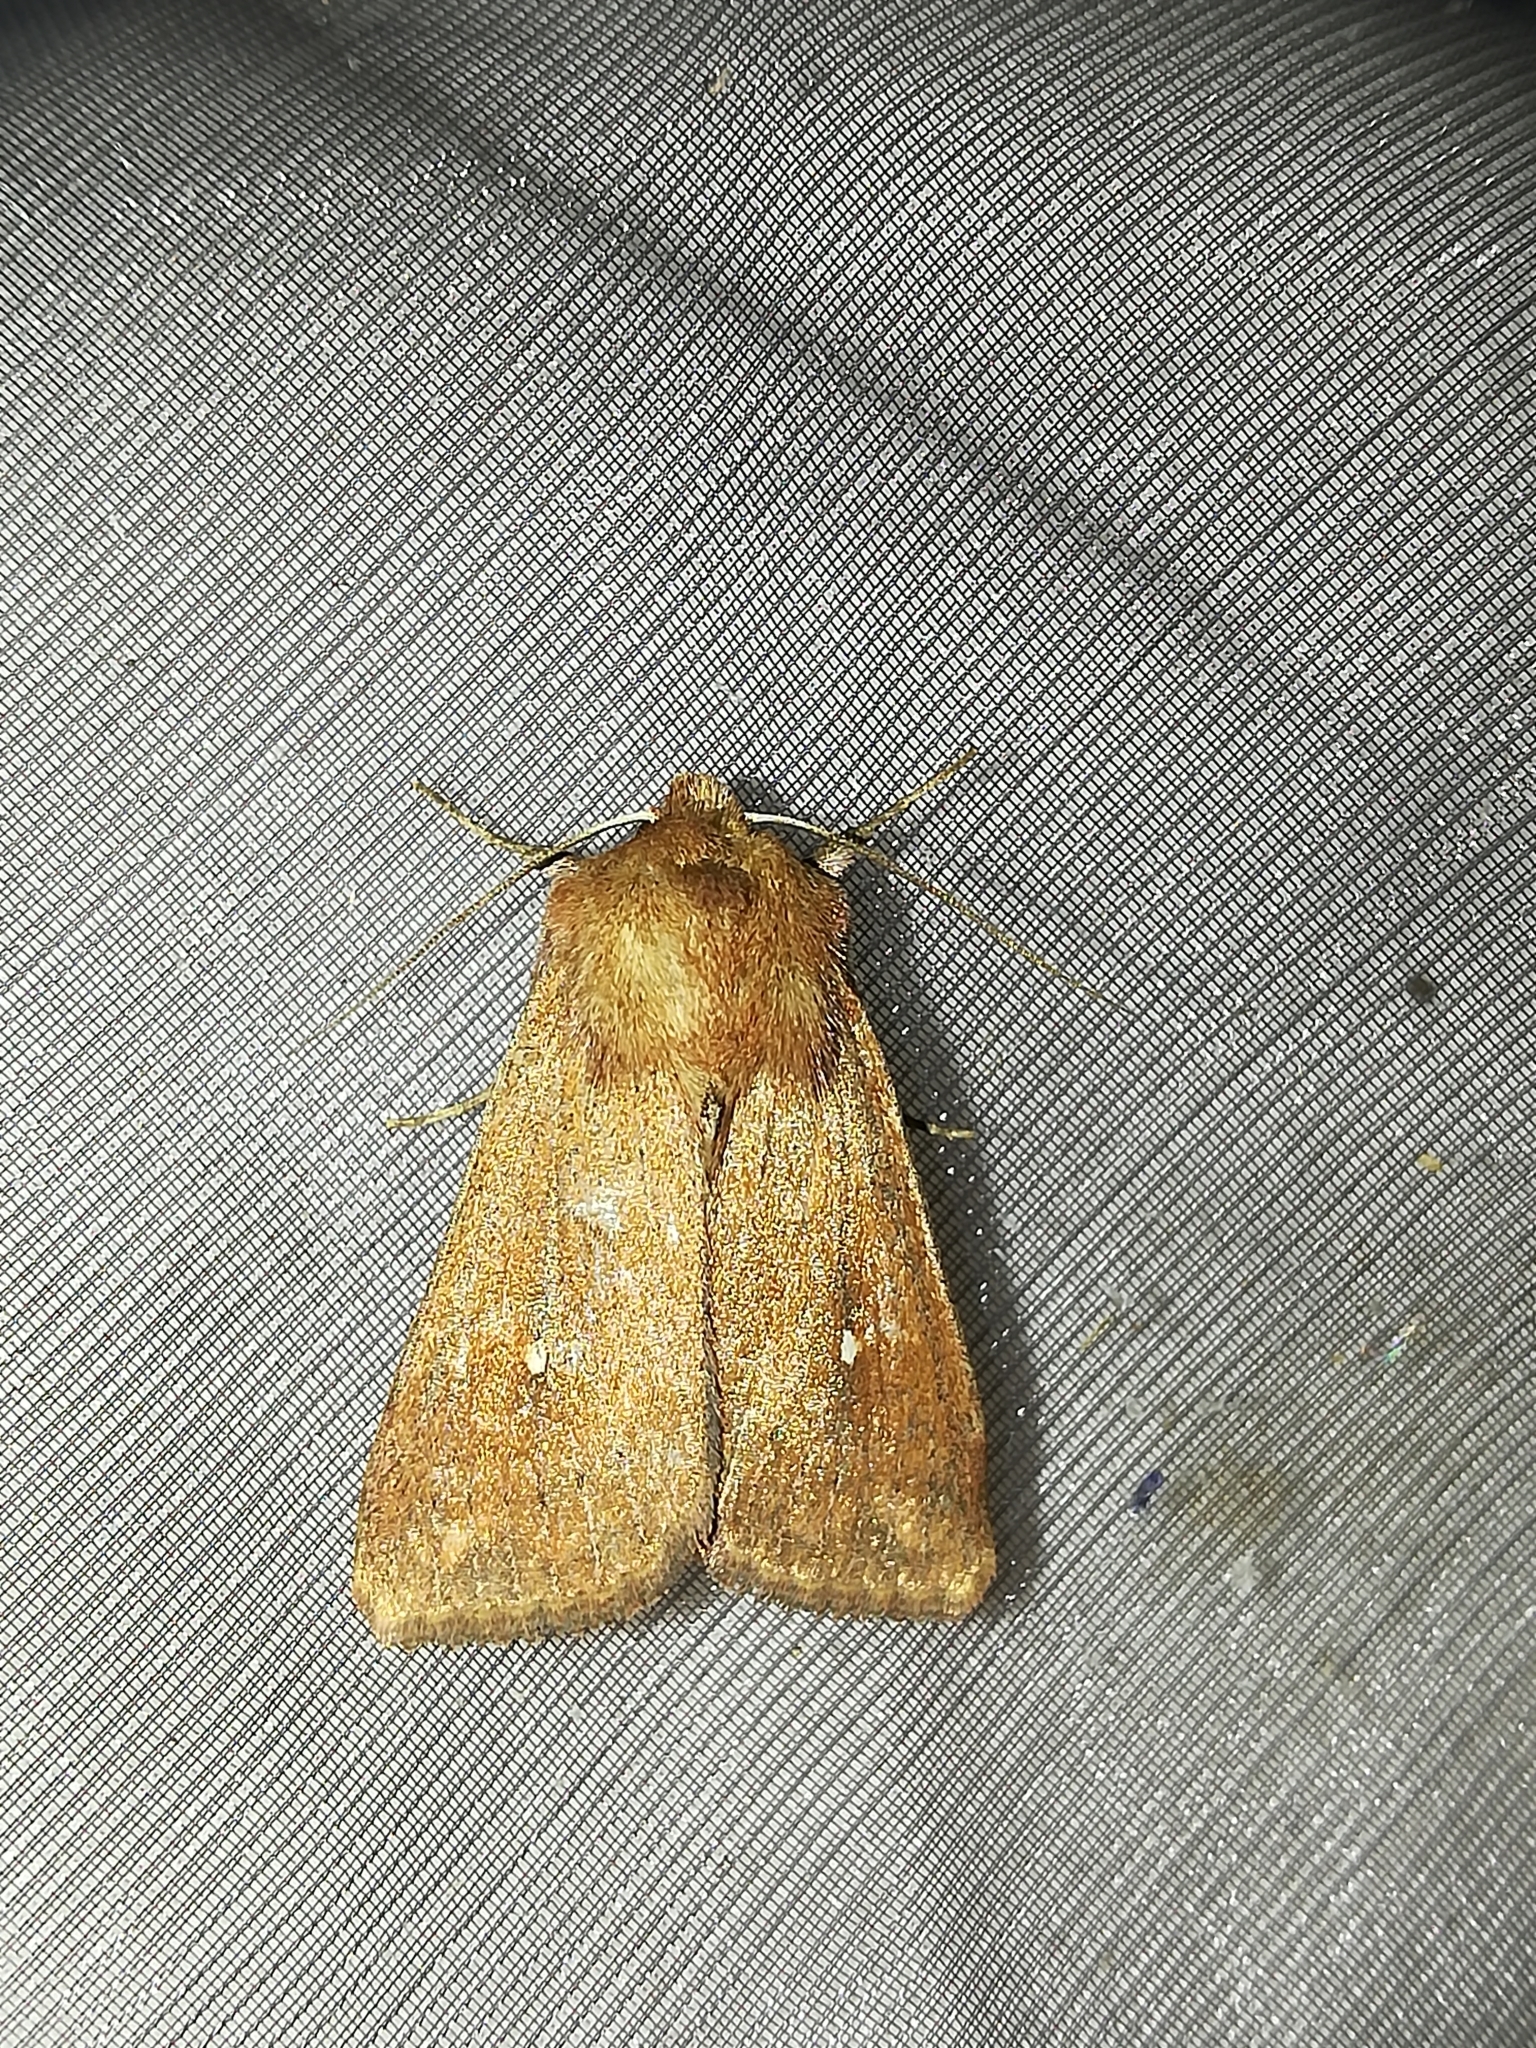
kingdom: Animalia
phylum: Arthropoda
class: Insecta
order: Lepidoptera
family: Noctuidae
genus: Mythimna
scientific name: Mythimna albipuncta
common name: White-point
